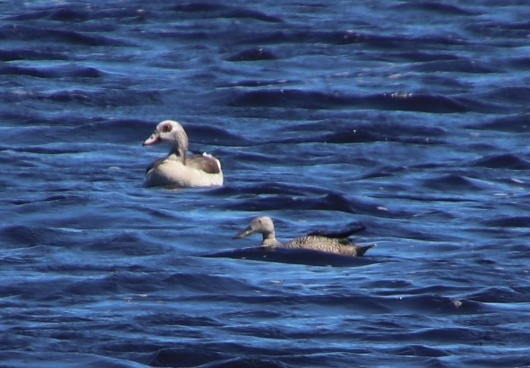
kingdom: Animalia
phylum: Chordata
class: Aves
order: Anseriformes
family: Anatidae
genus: Spatula
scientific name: Spatula smithii
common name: Cape shoveler
